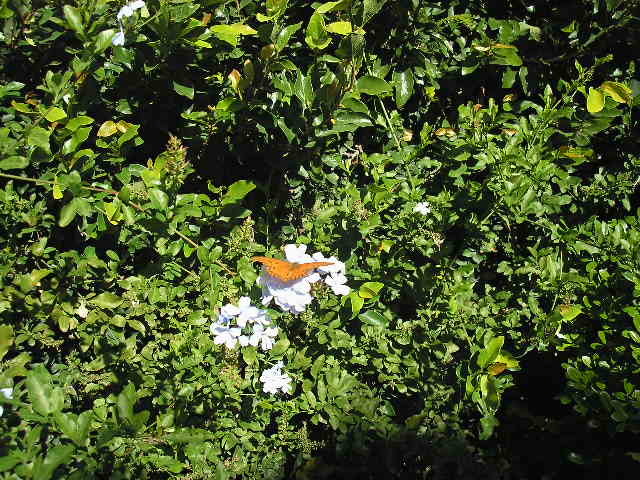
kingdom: Animalia
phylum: Arthropoda
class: Insecta
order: Lepidoptera
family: Nymphalidae
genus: Dione
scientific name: Dione vanillae
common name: Gulf fritillary
